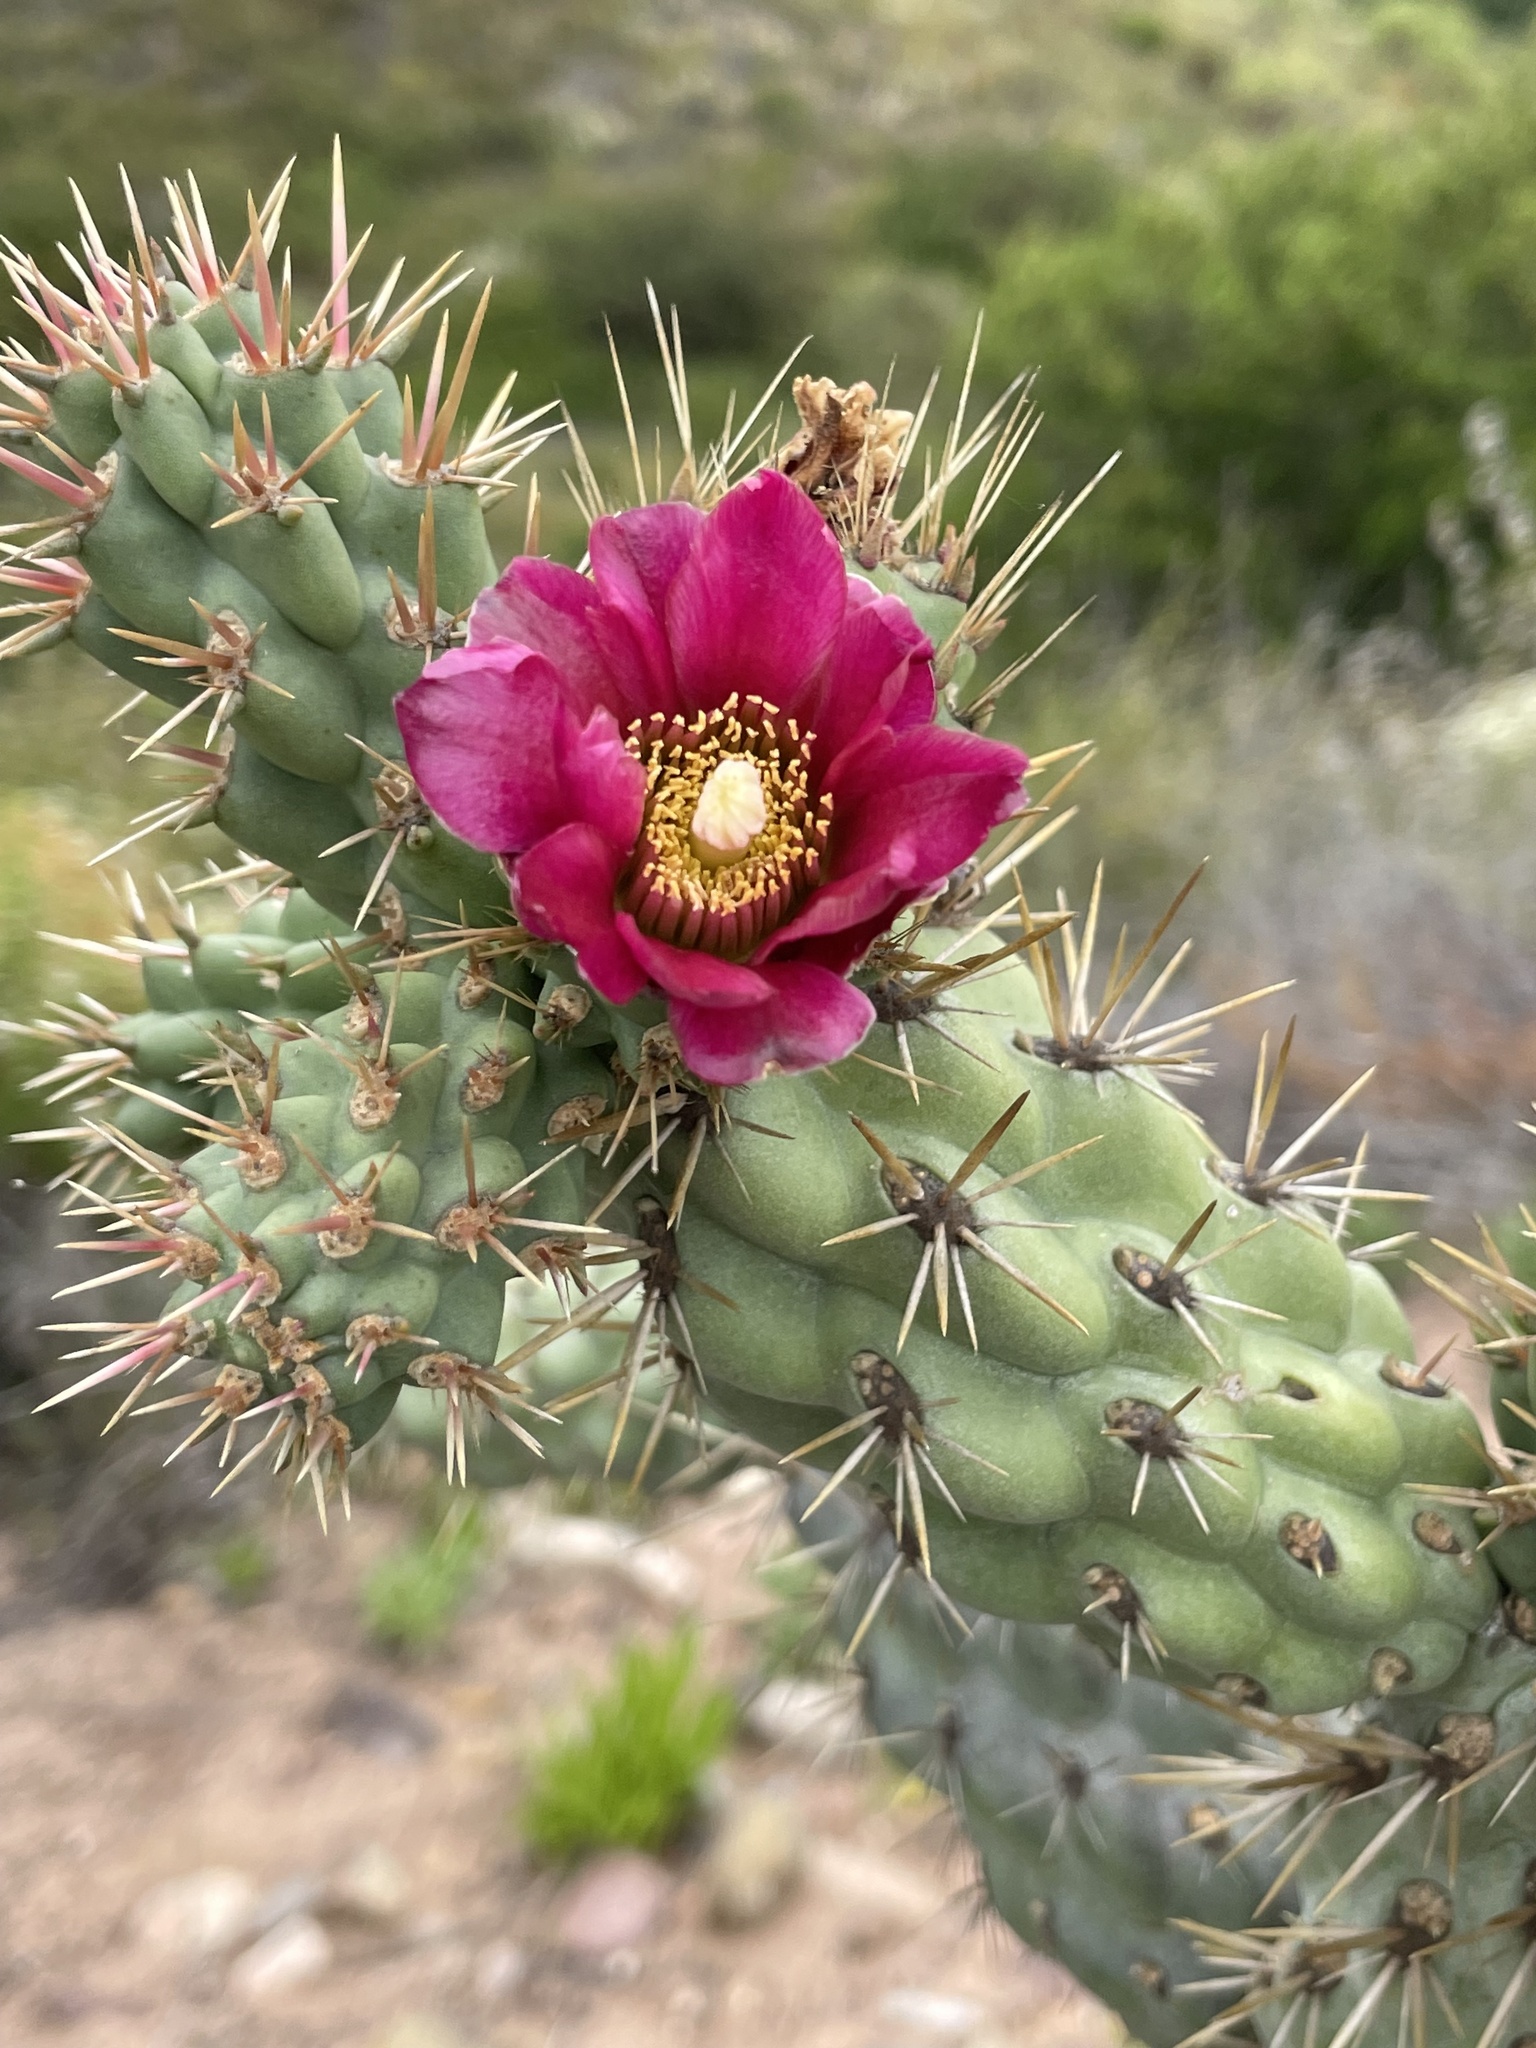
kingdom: Plantae
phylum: Tracheophyta
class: Magnoliopsida
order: Caryophyllales
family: Cactaceae
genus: Cylindropuntia
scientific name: Cylindropuntia prolifera
